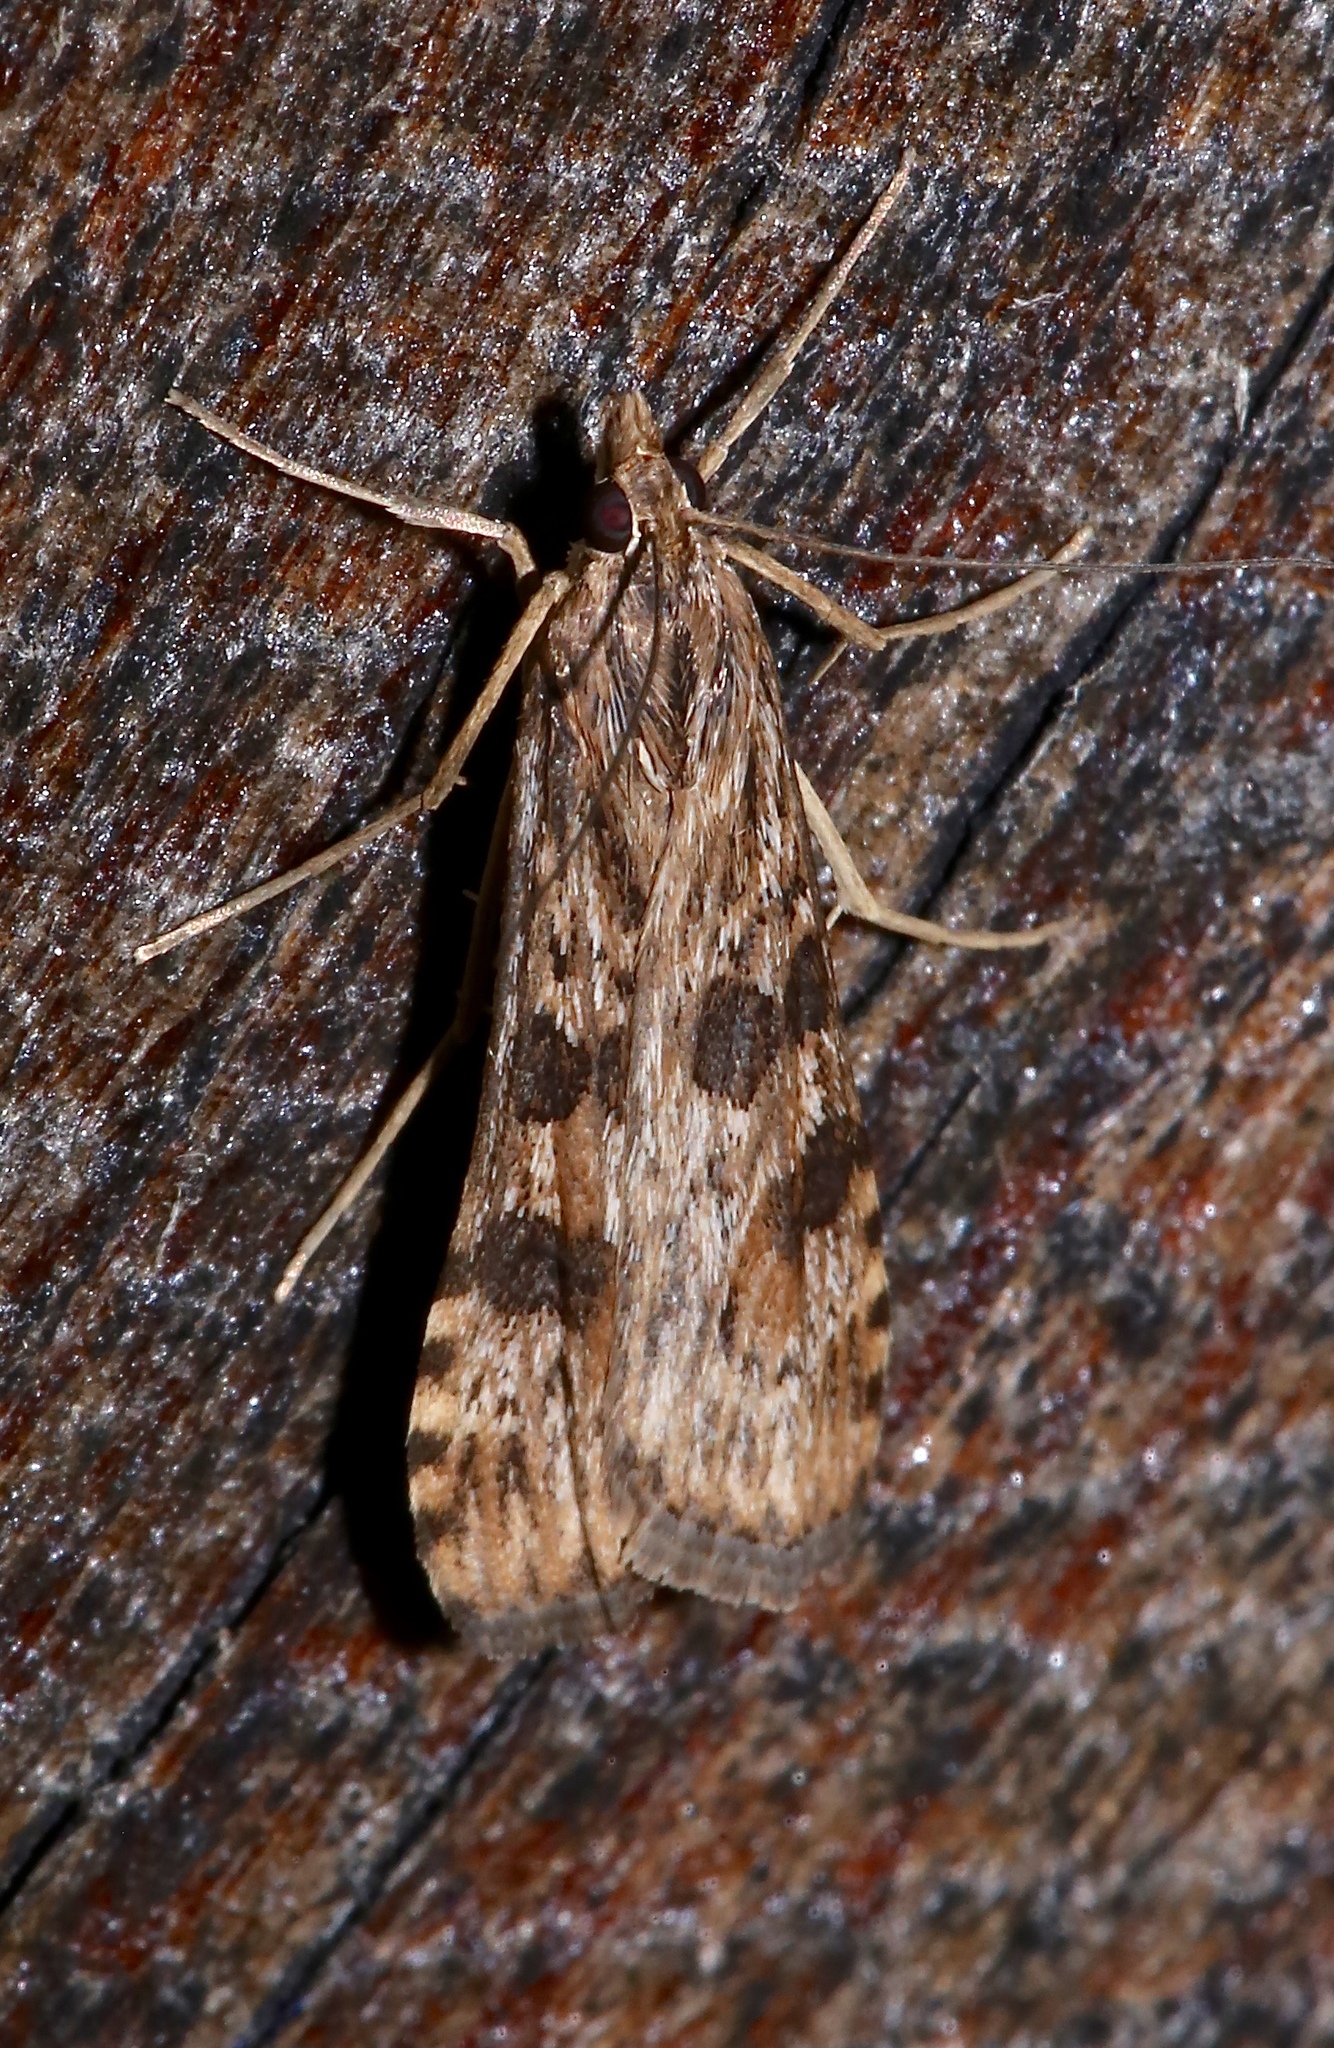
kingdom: Animalia
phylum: Arthropoda
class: Insecta
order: Lepidoptera
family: Crambidae
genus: Nomophila
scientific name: Nomophila nearctica
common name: American rush veneer
